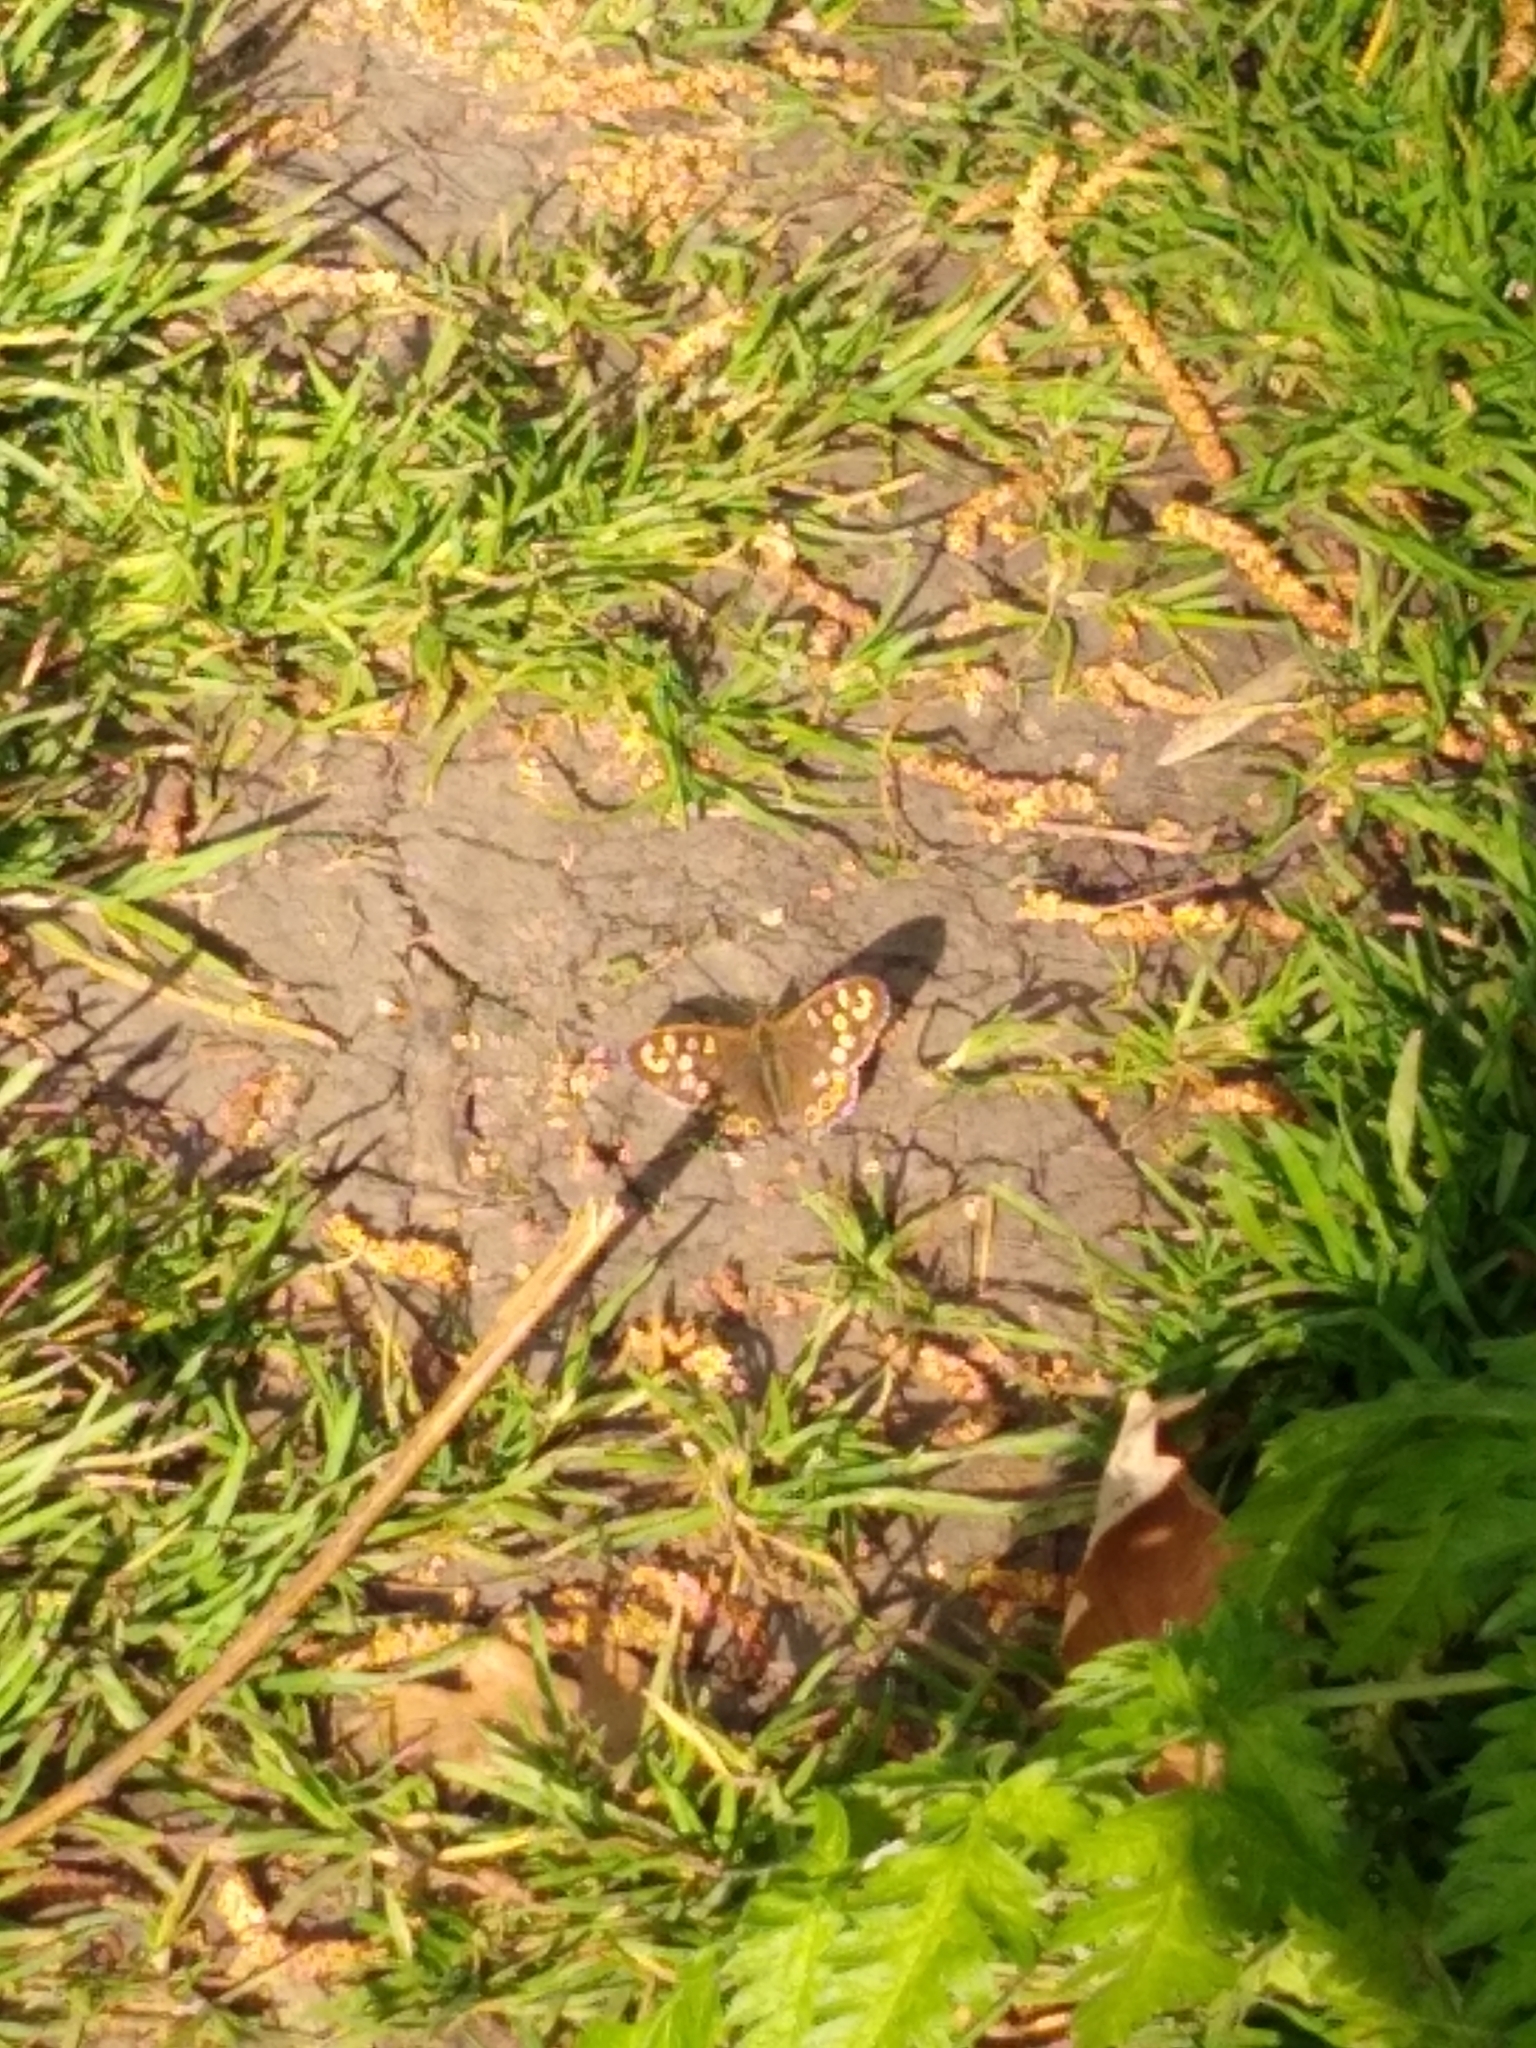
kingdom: Animalia
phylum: Arthropoda
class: Insecta
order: Lepidoptera
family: Nymphalidae
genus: Pararge
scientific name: Pararge aegeria
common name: Speckled wood
